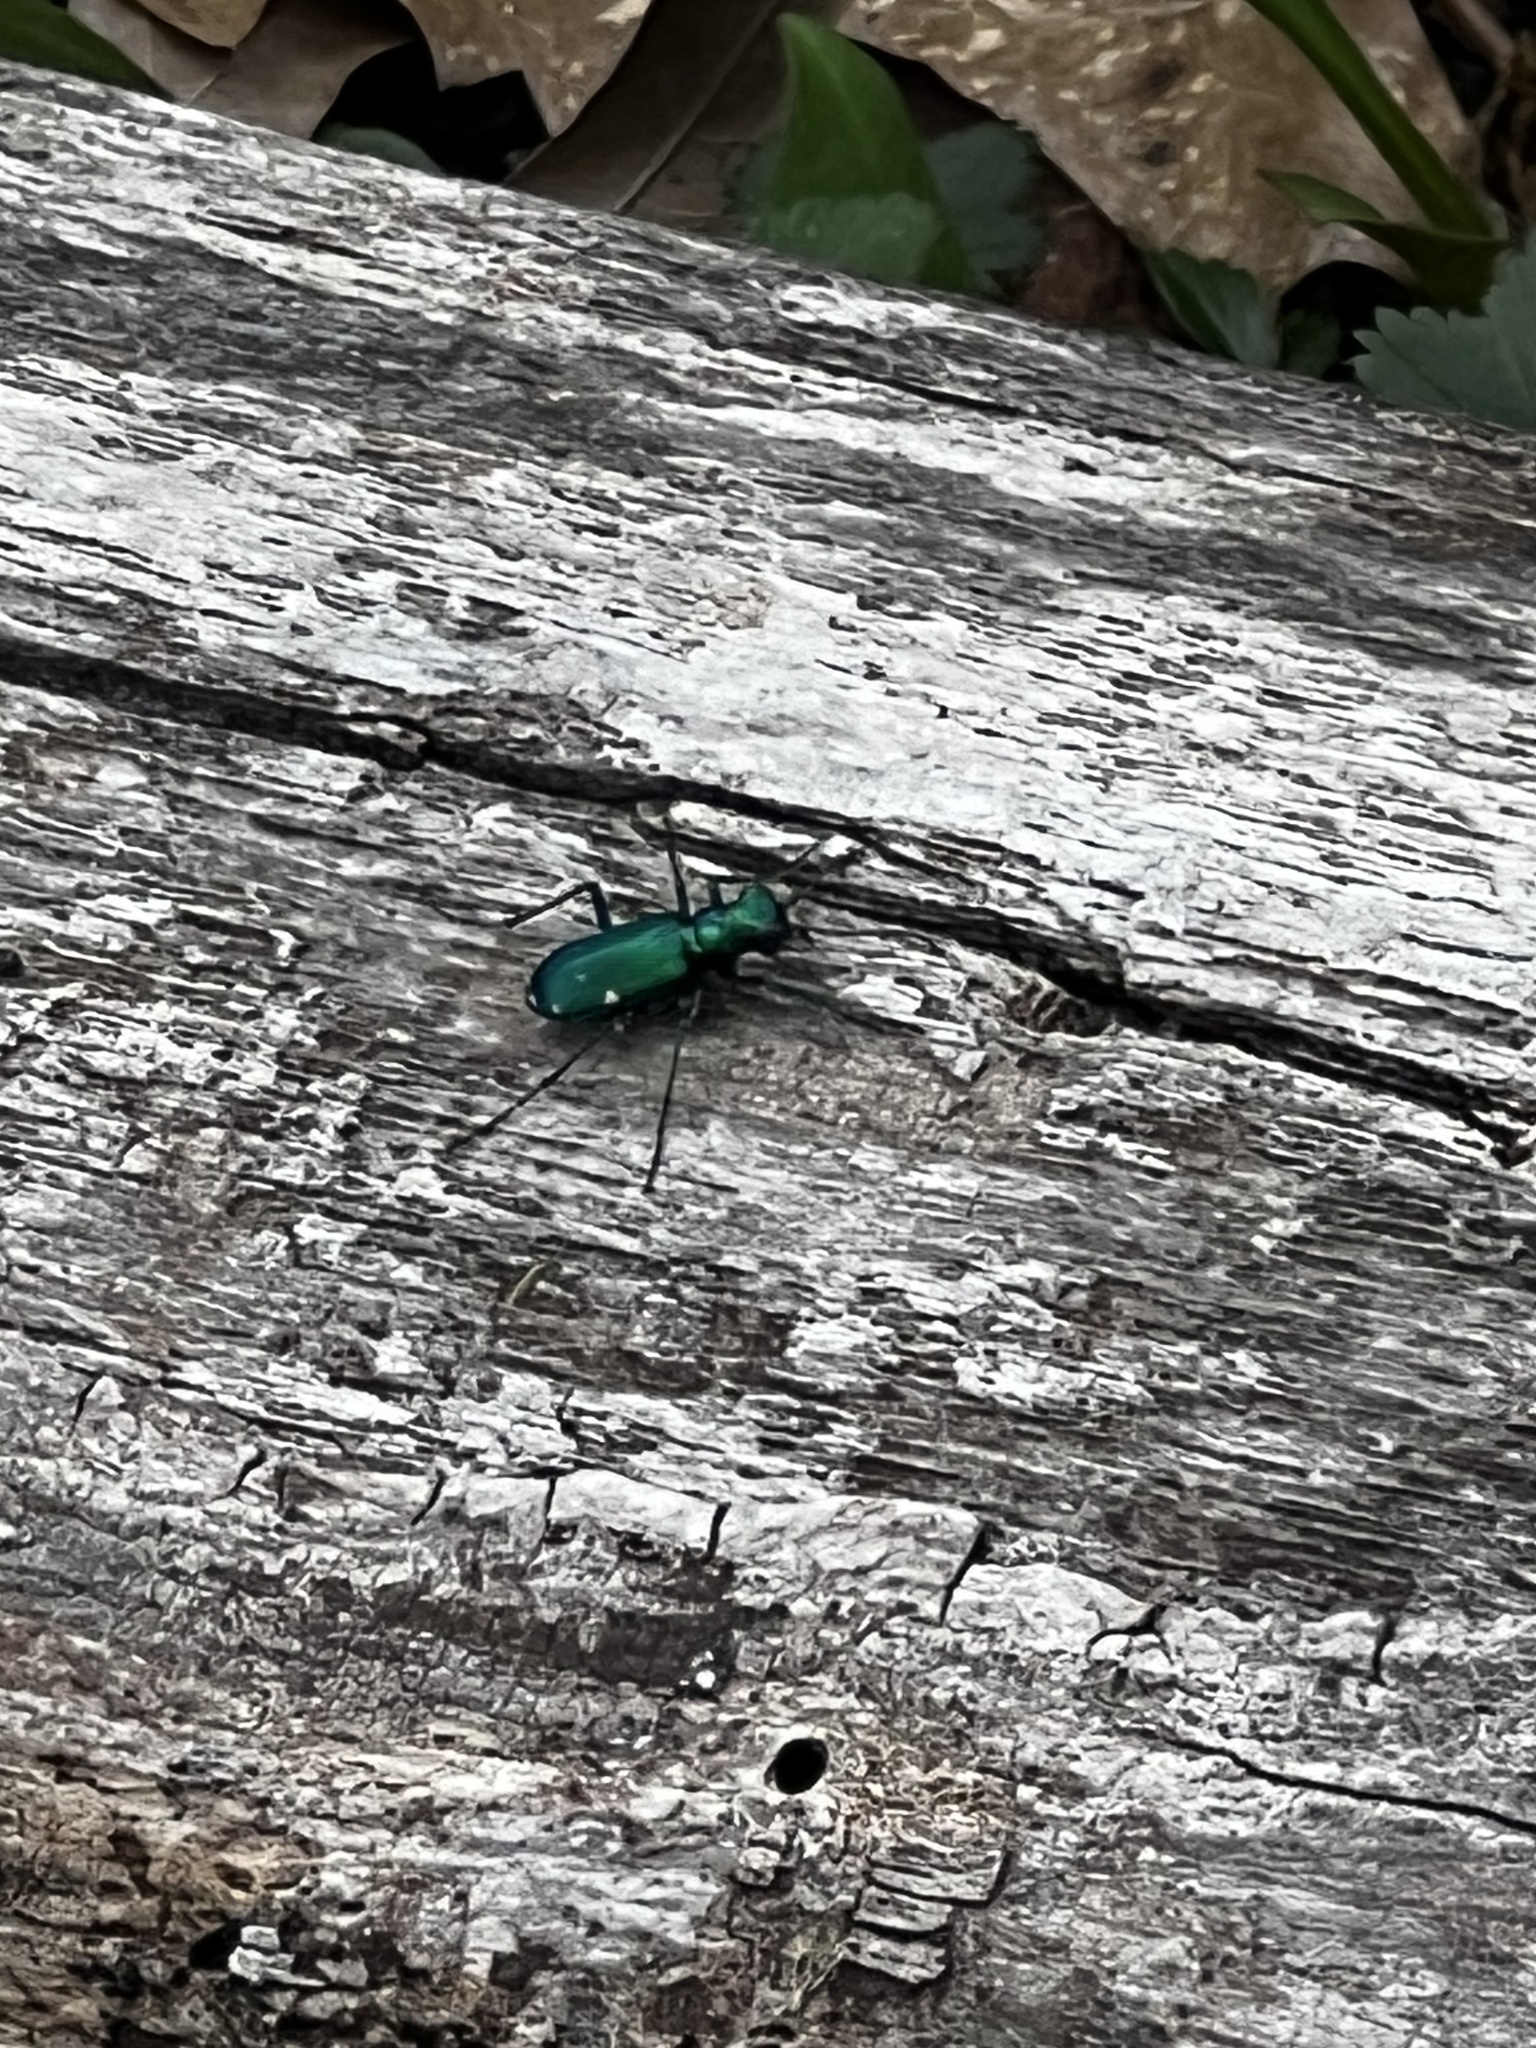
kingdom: Animalia
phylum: Arthropoda
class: Insecta
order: Coleoptera
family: Carabidae
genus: Cicindela
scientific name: Cicindela sexguttata
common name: Six-spotted tiger beetle
